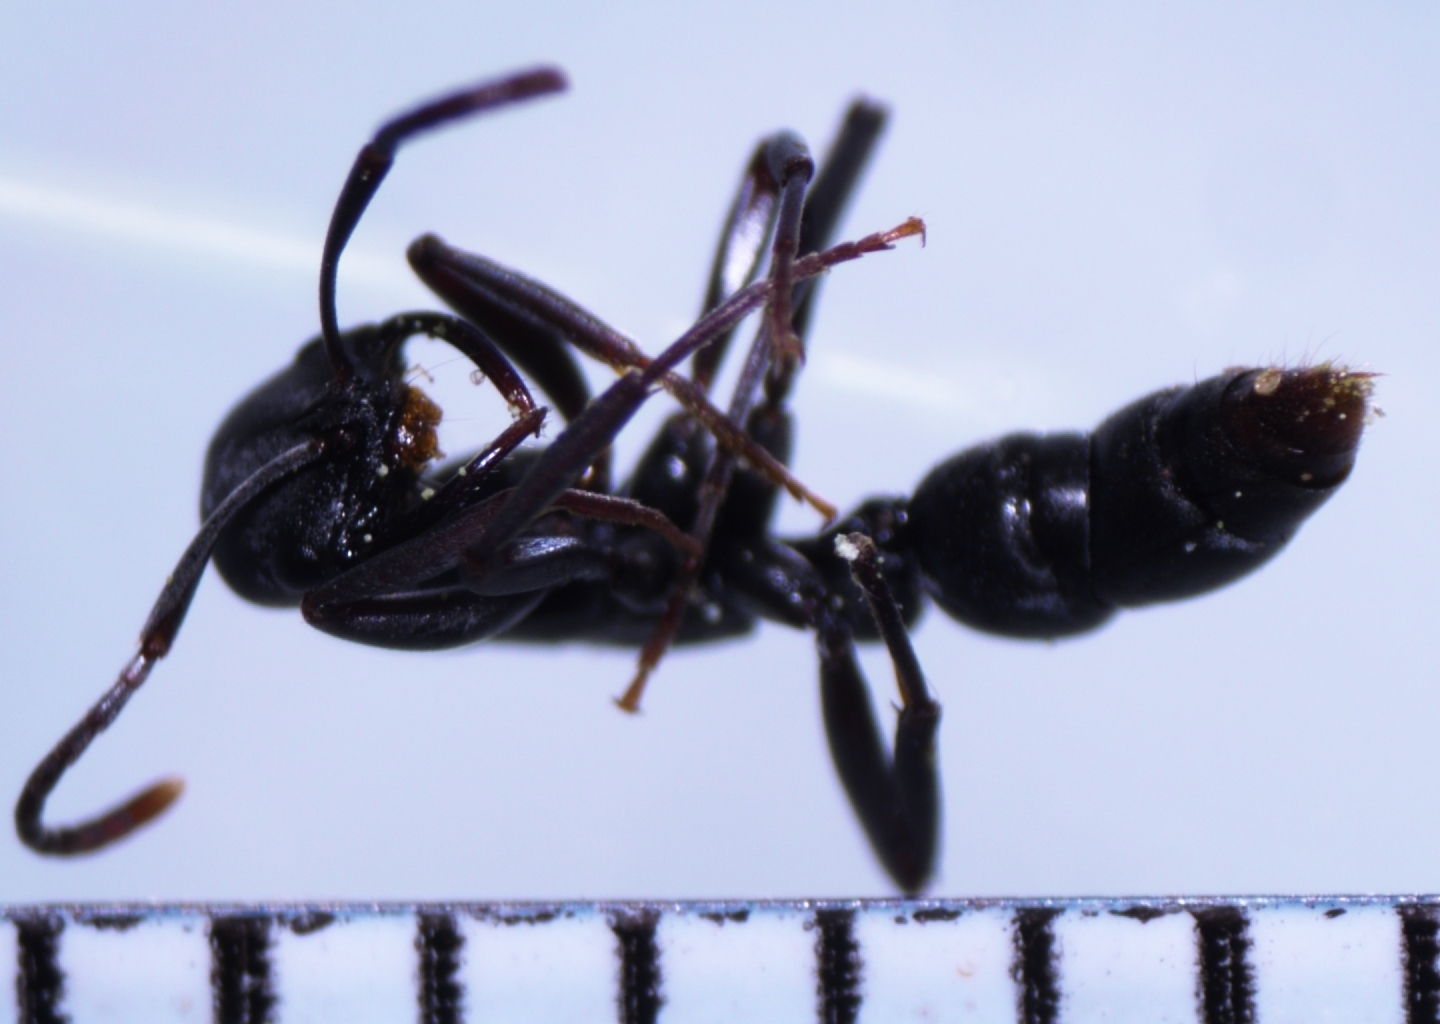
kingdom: Animalia
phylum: Arthropoda
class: Insecta
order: Hymenoptera
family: Formicidae
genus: Leptogenys
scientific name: Leptogenys falcigera
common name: Ant
